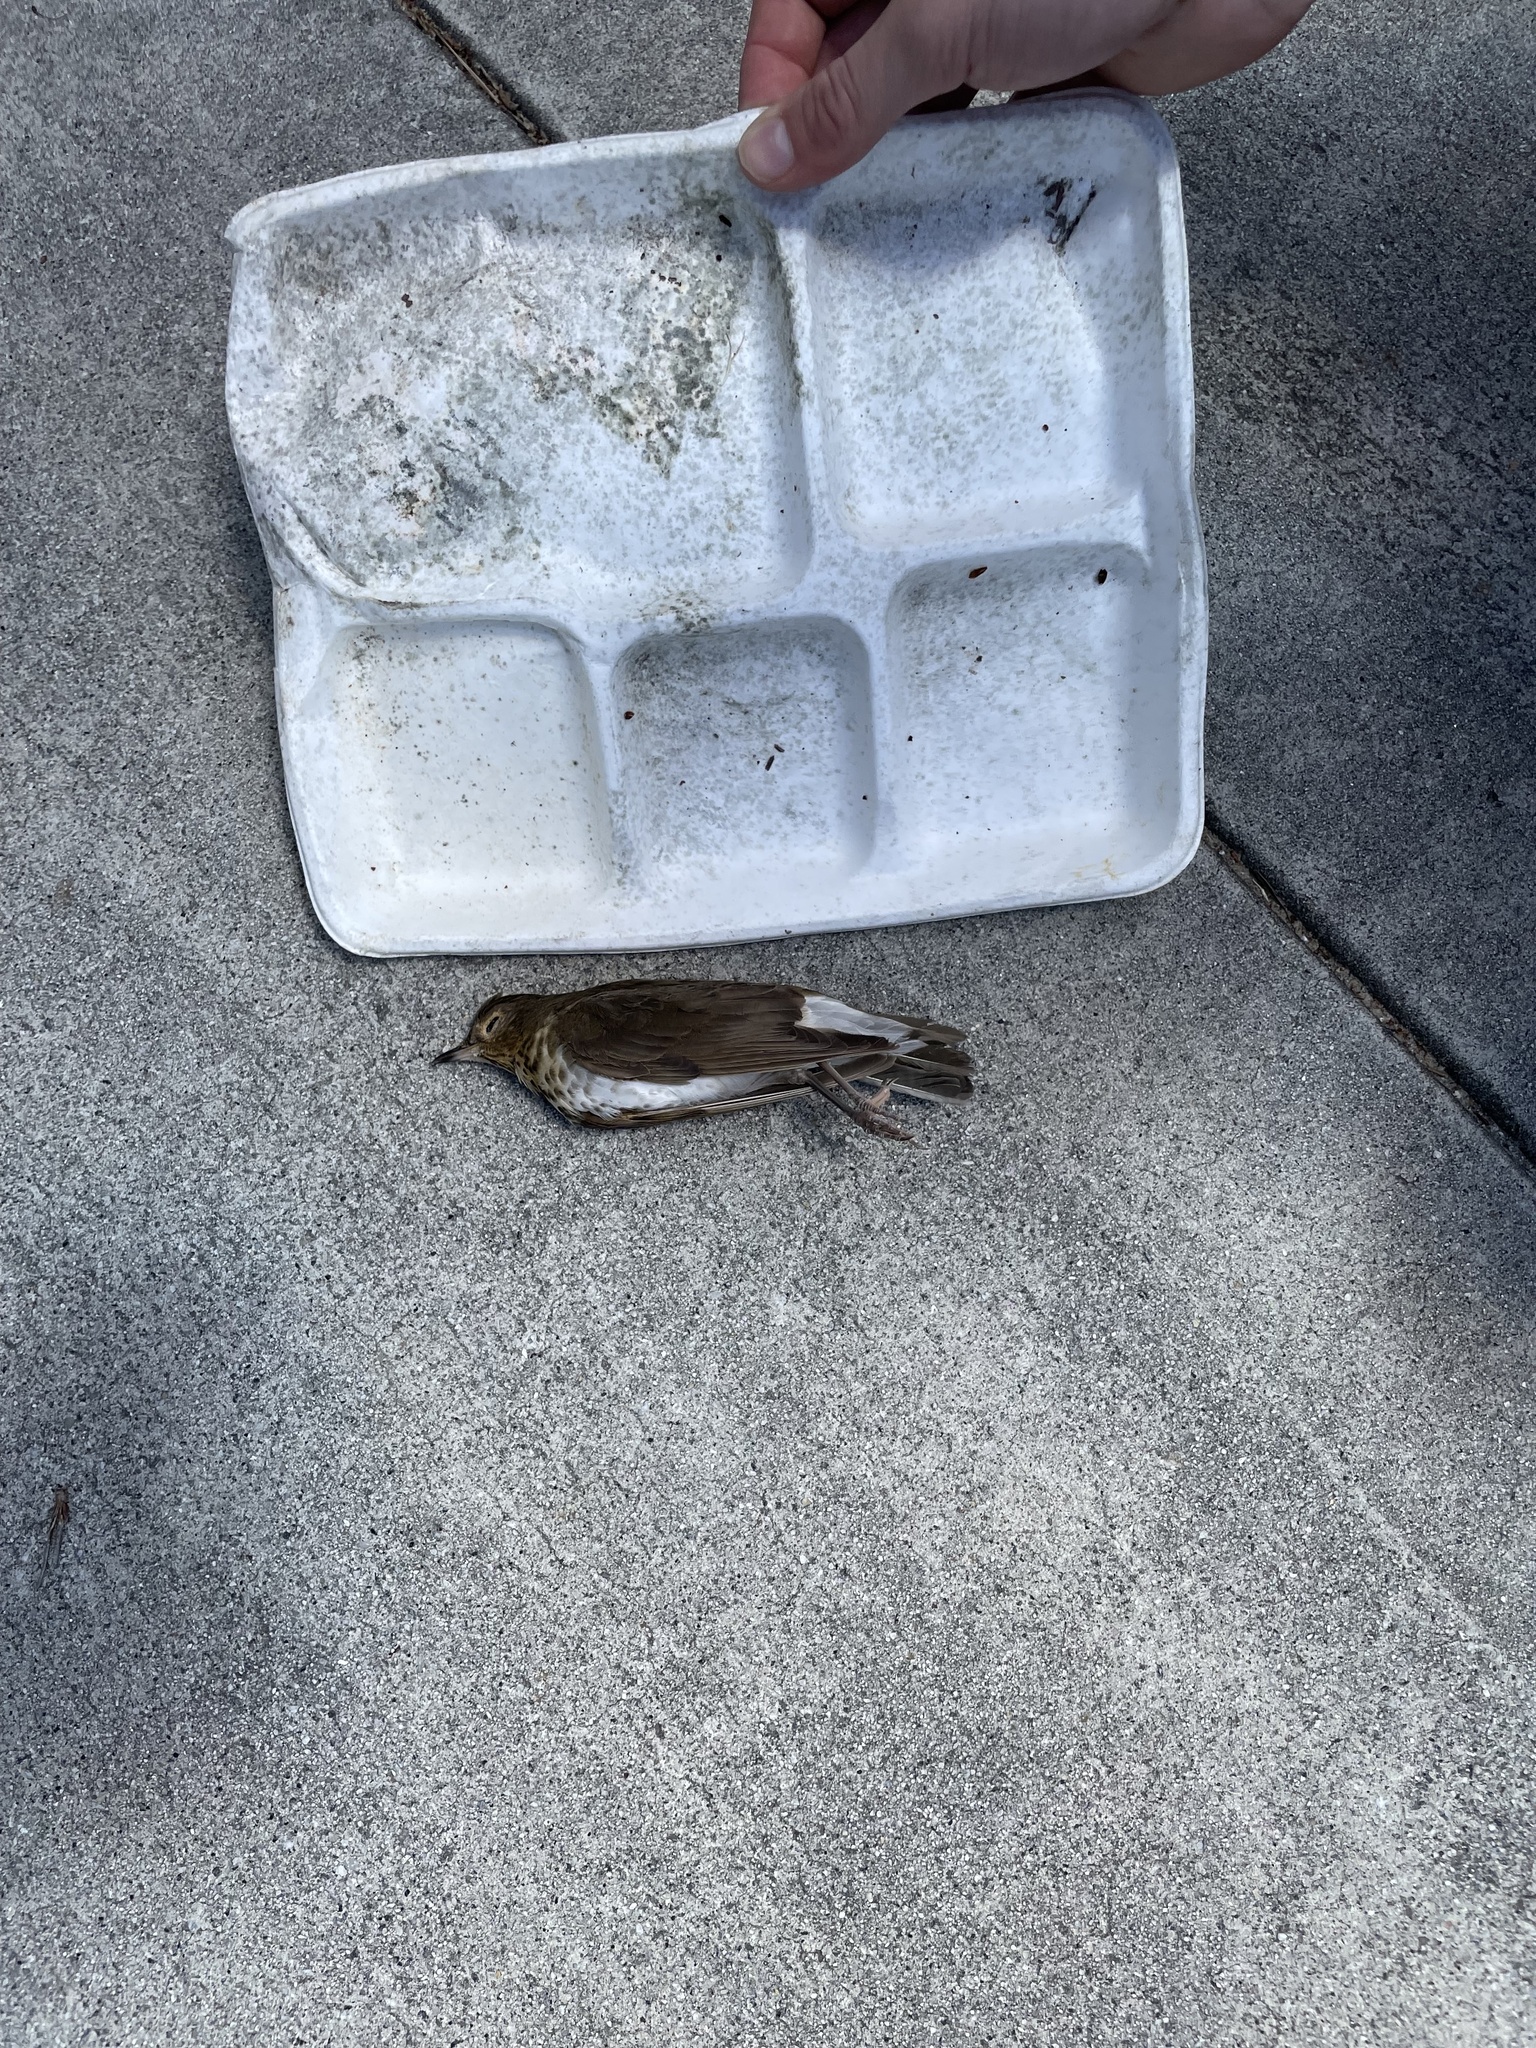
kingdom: Animalia
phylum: Chordata
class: Aves
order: Passeriformes
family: Turdidae
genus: Catharus
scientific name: Catharus ustulatus
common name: Swainson's thrush
